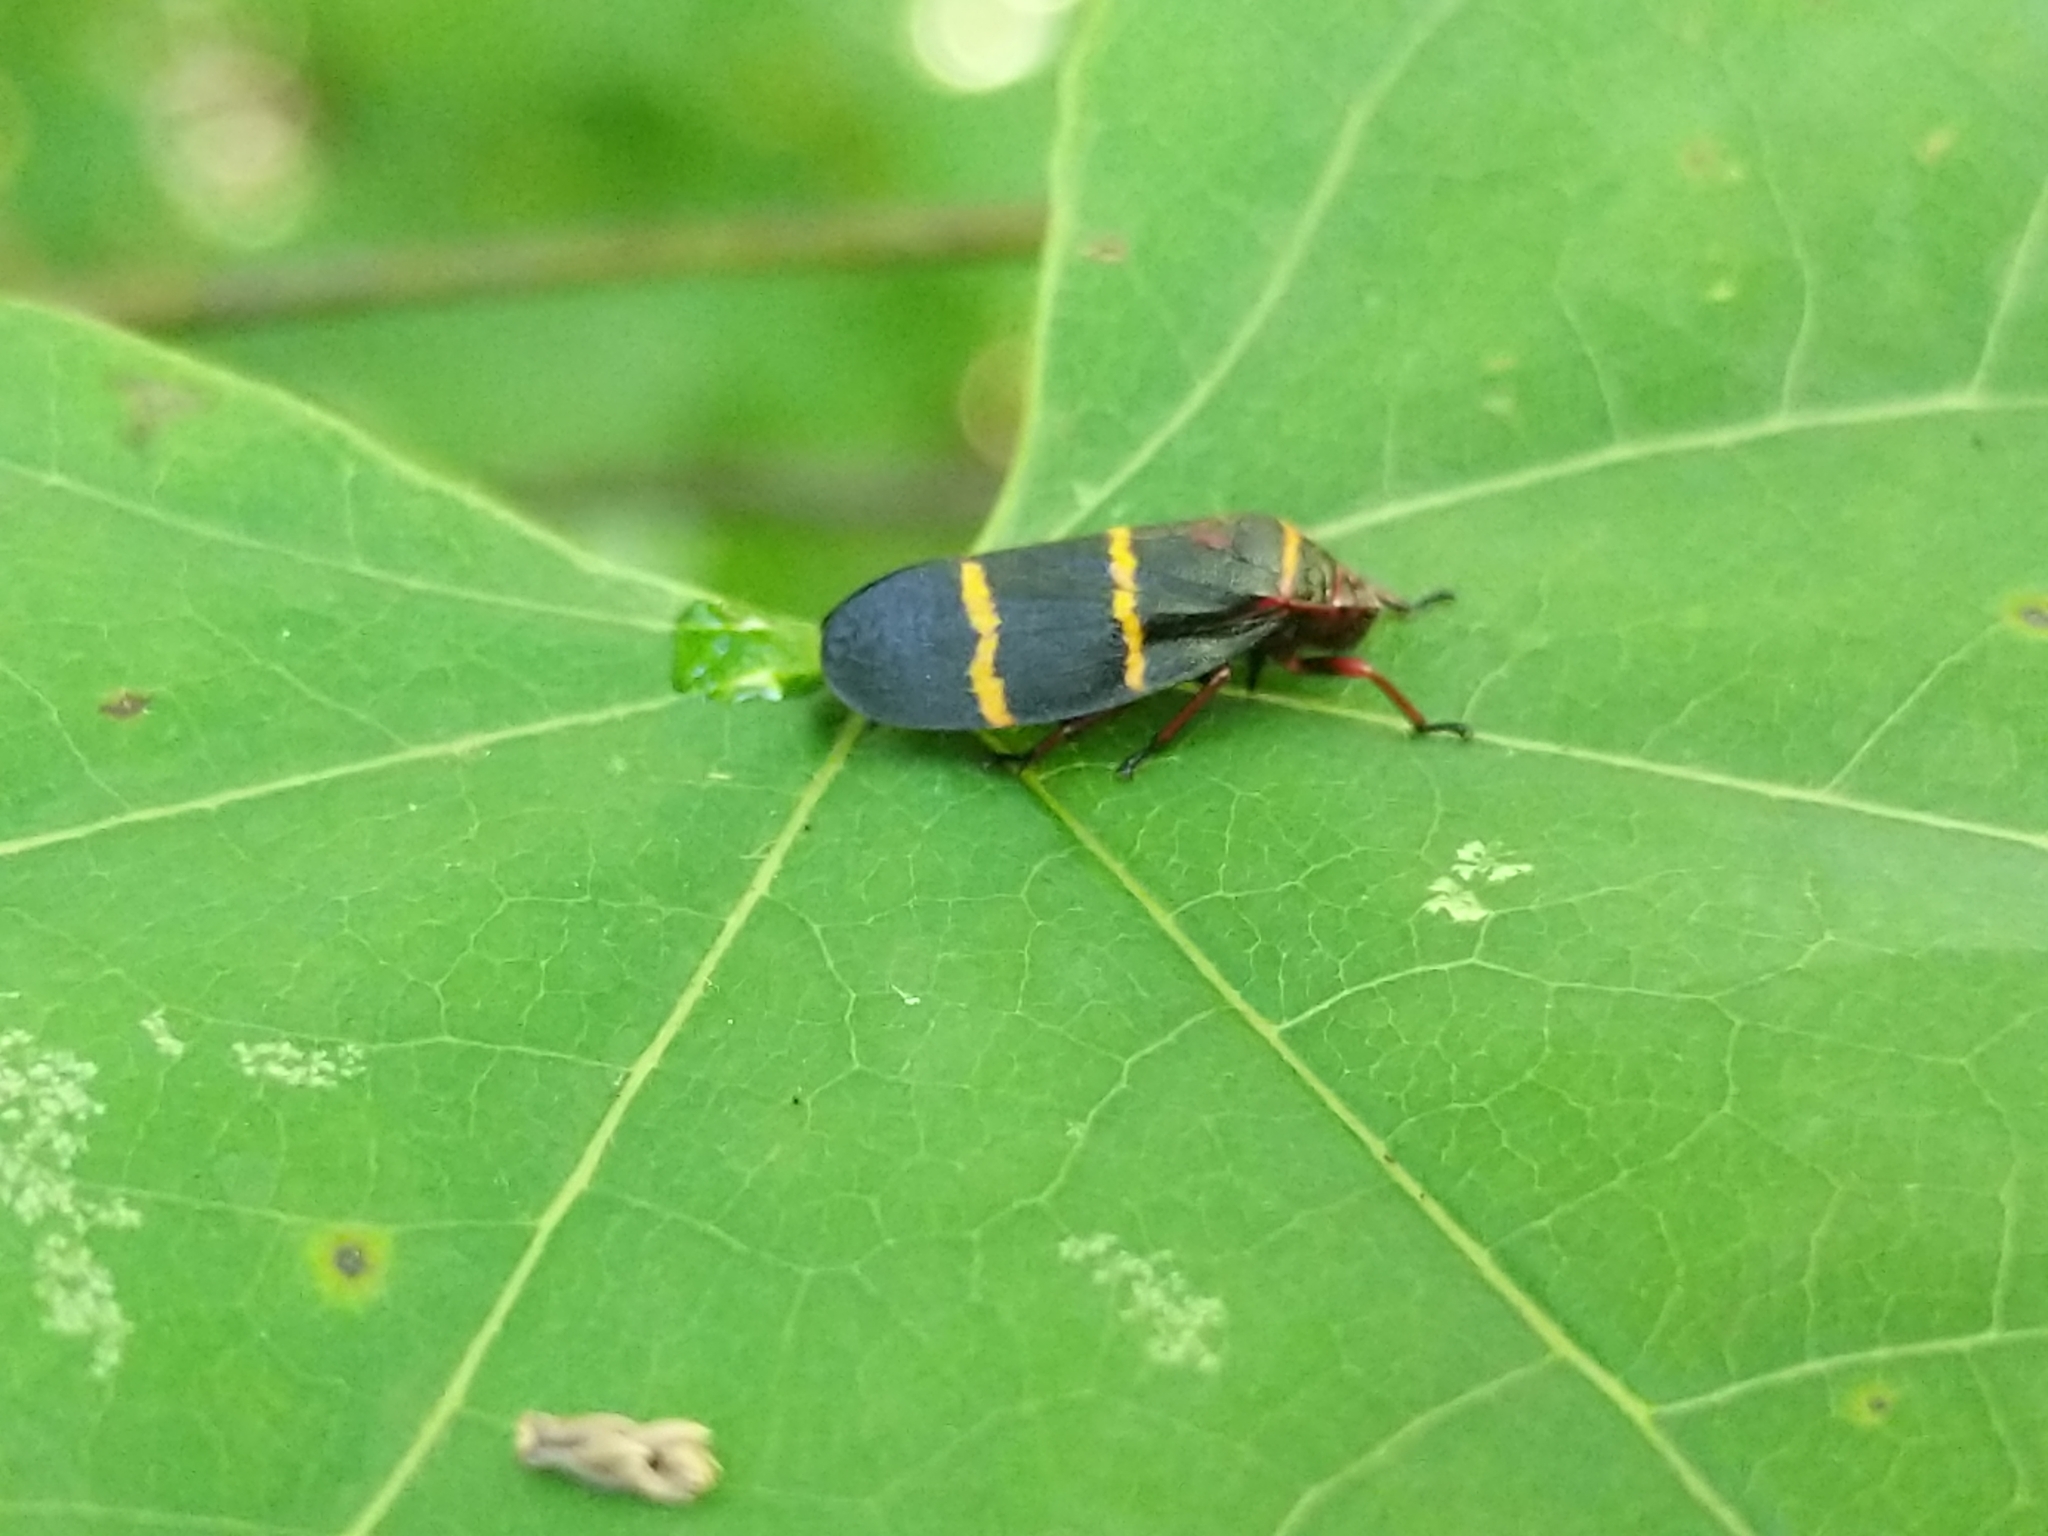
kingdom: Animalia
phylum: Arthropoda
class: Insecta
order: Hemiptera
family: Cercopidae
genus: Prosapia
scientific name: Prosapia bicincta
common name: Twolined spittlebug
